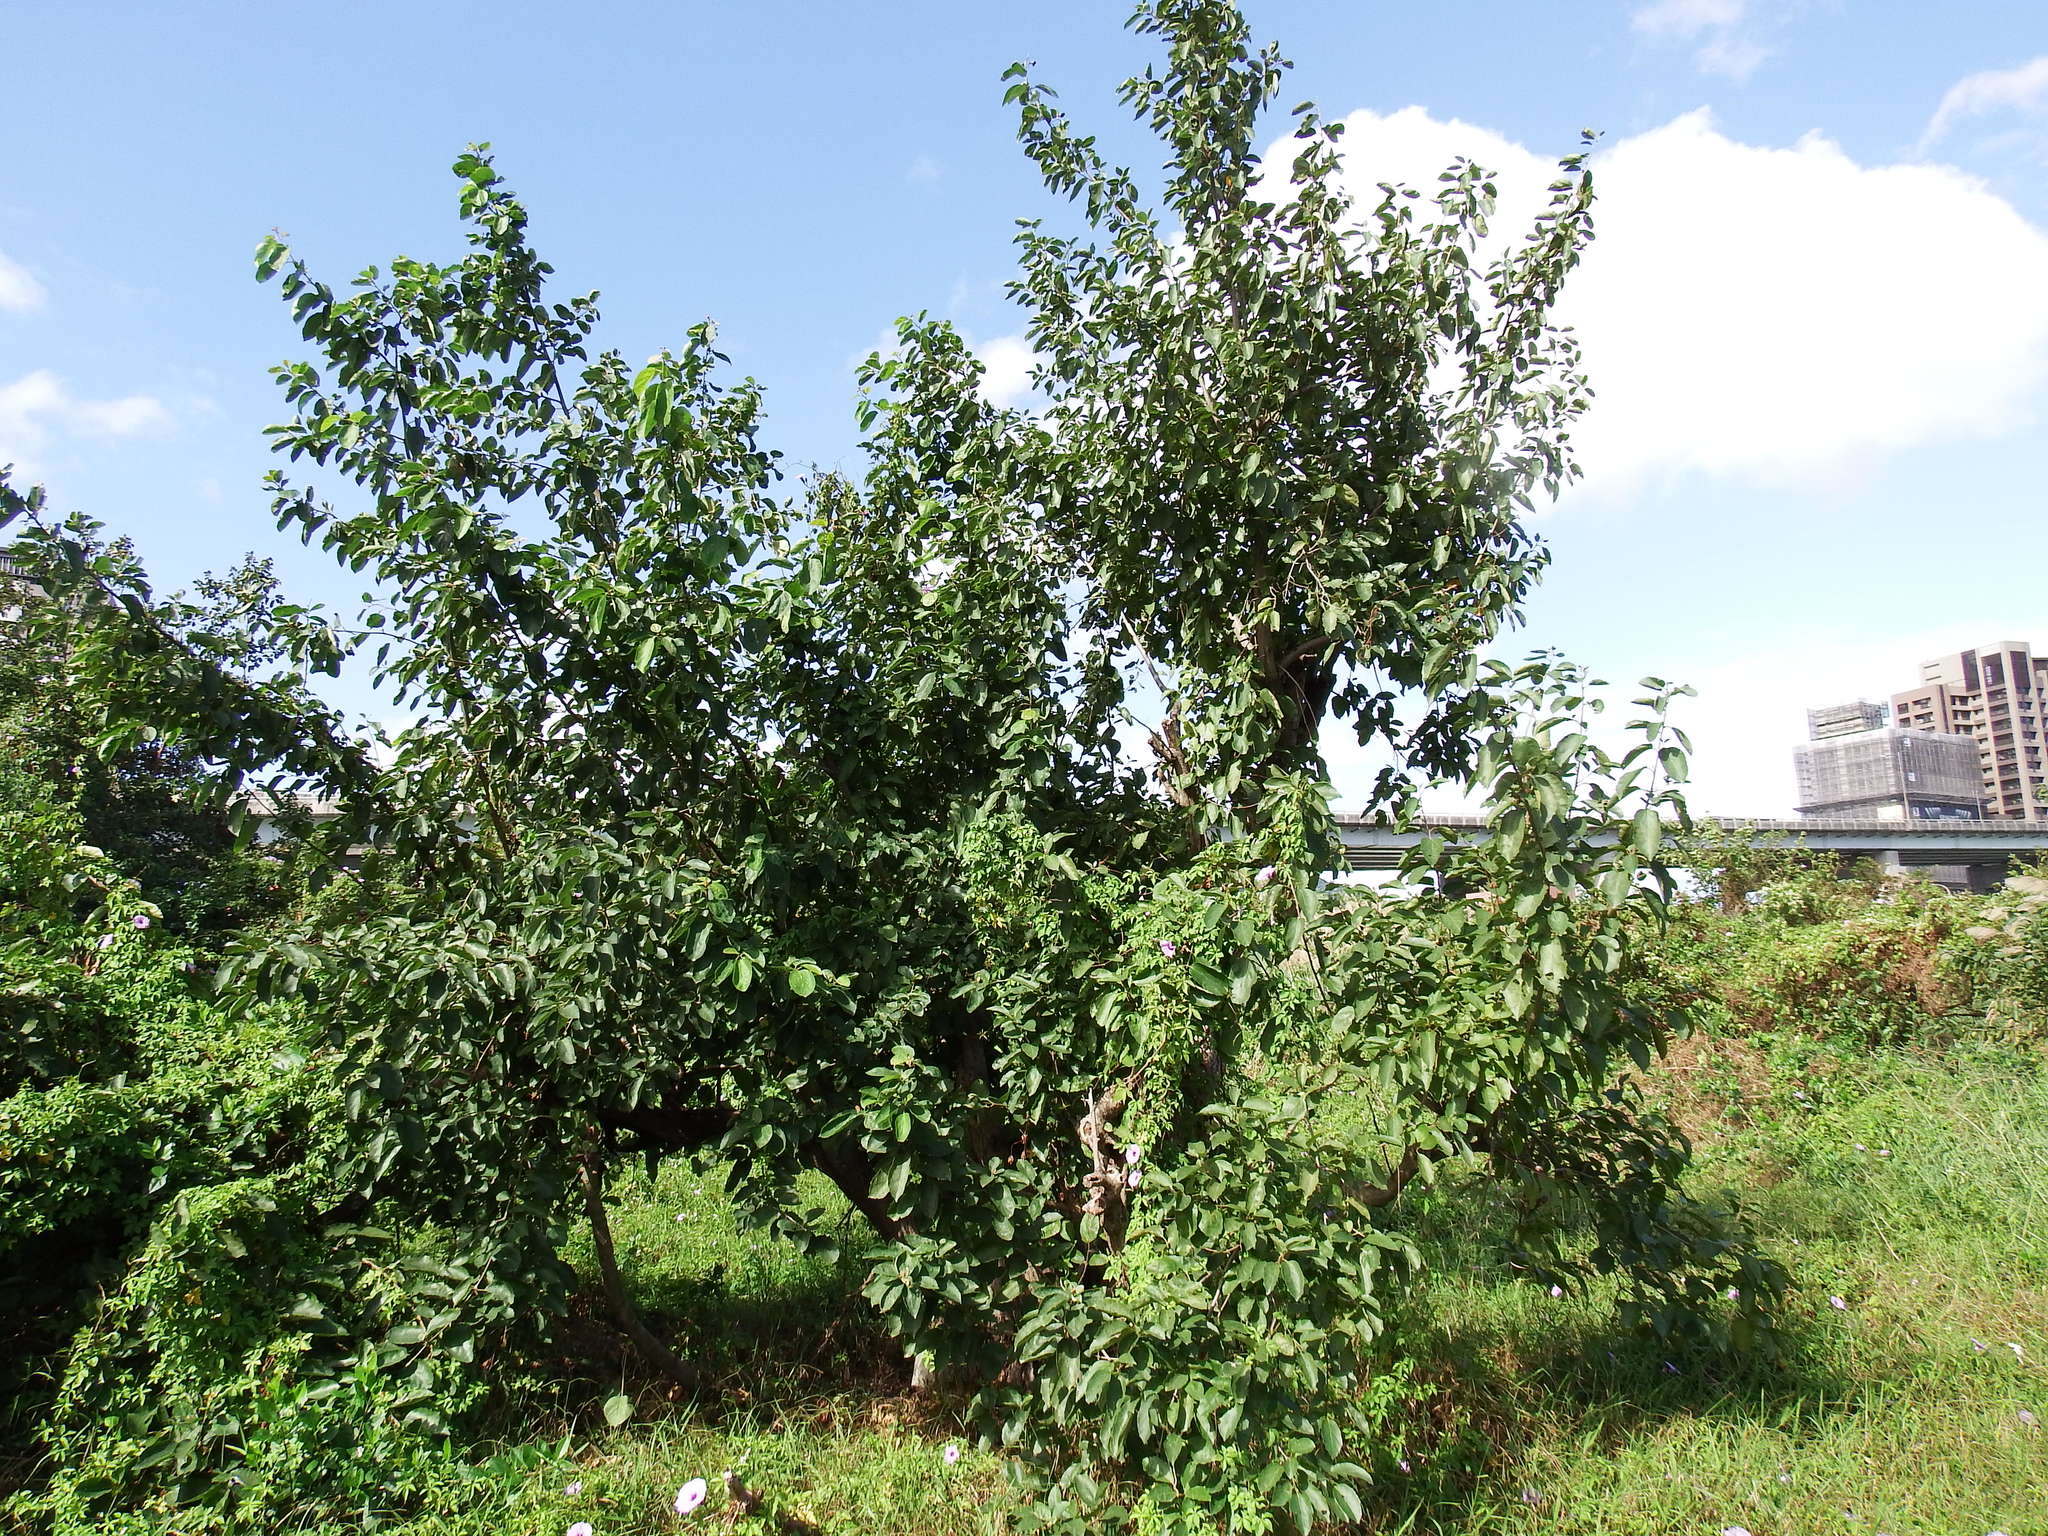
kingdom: Plantae
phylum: Tracheophyta
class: Magnoliopsida
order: Boraginales
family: Cordiaceae
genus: Cordia
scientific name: Cordia dichotoma
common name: Fragrant manjack
